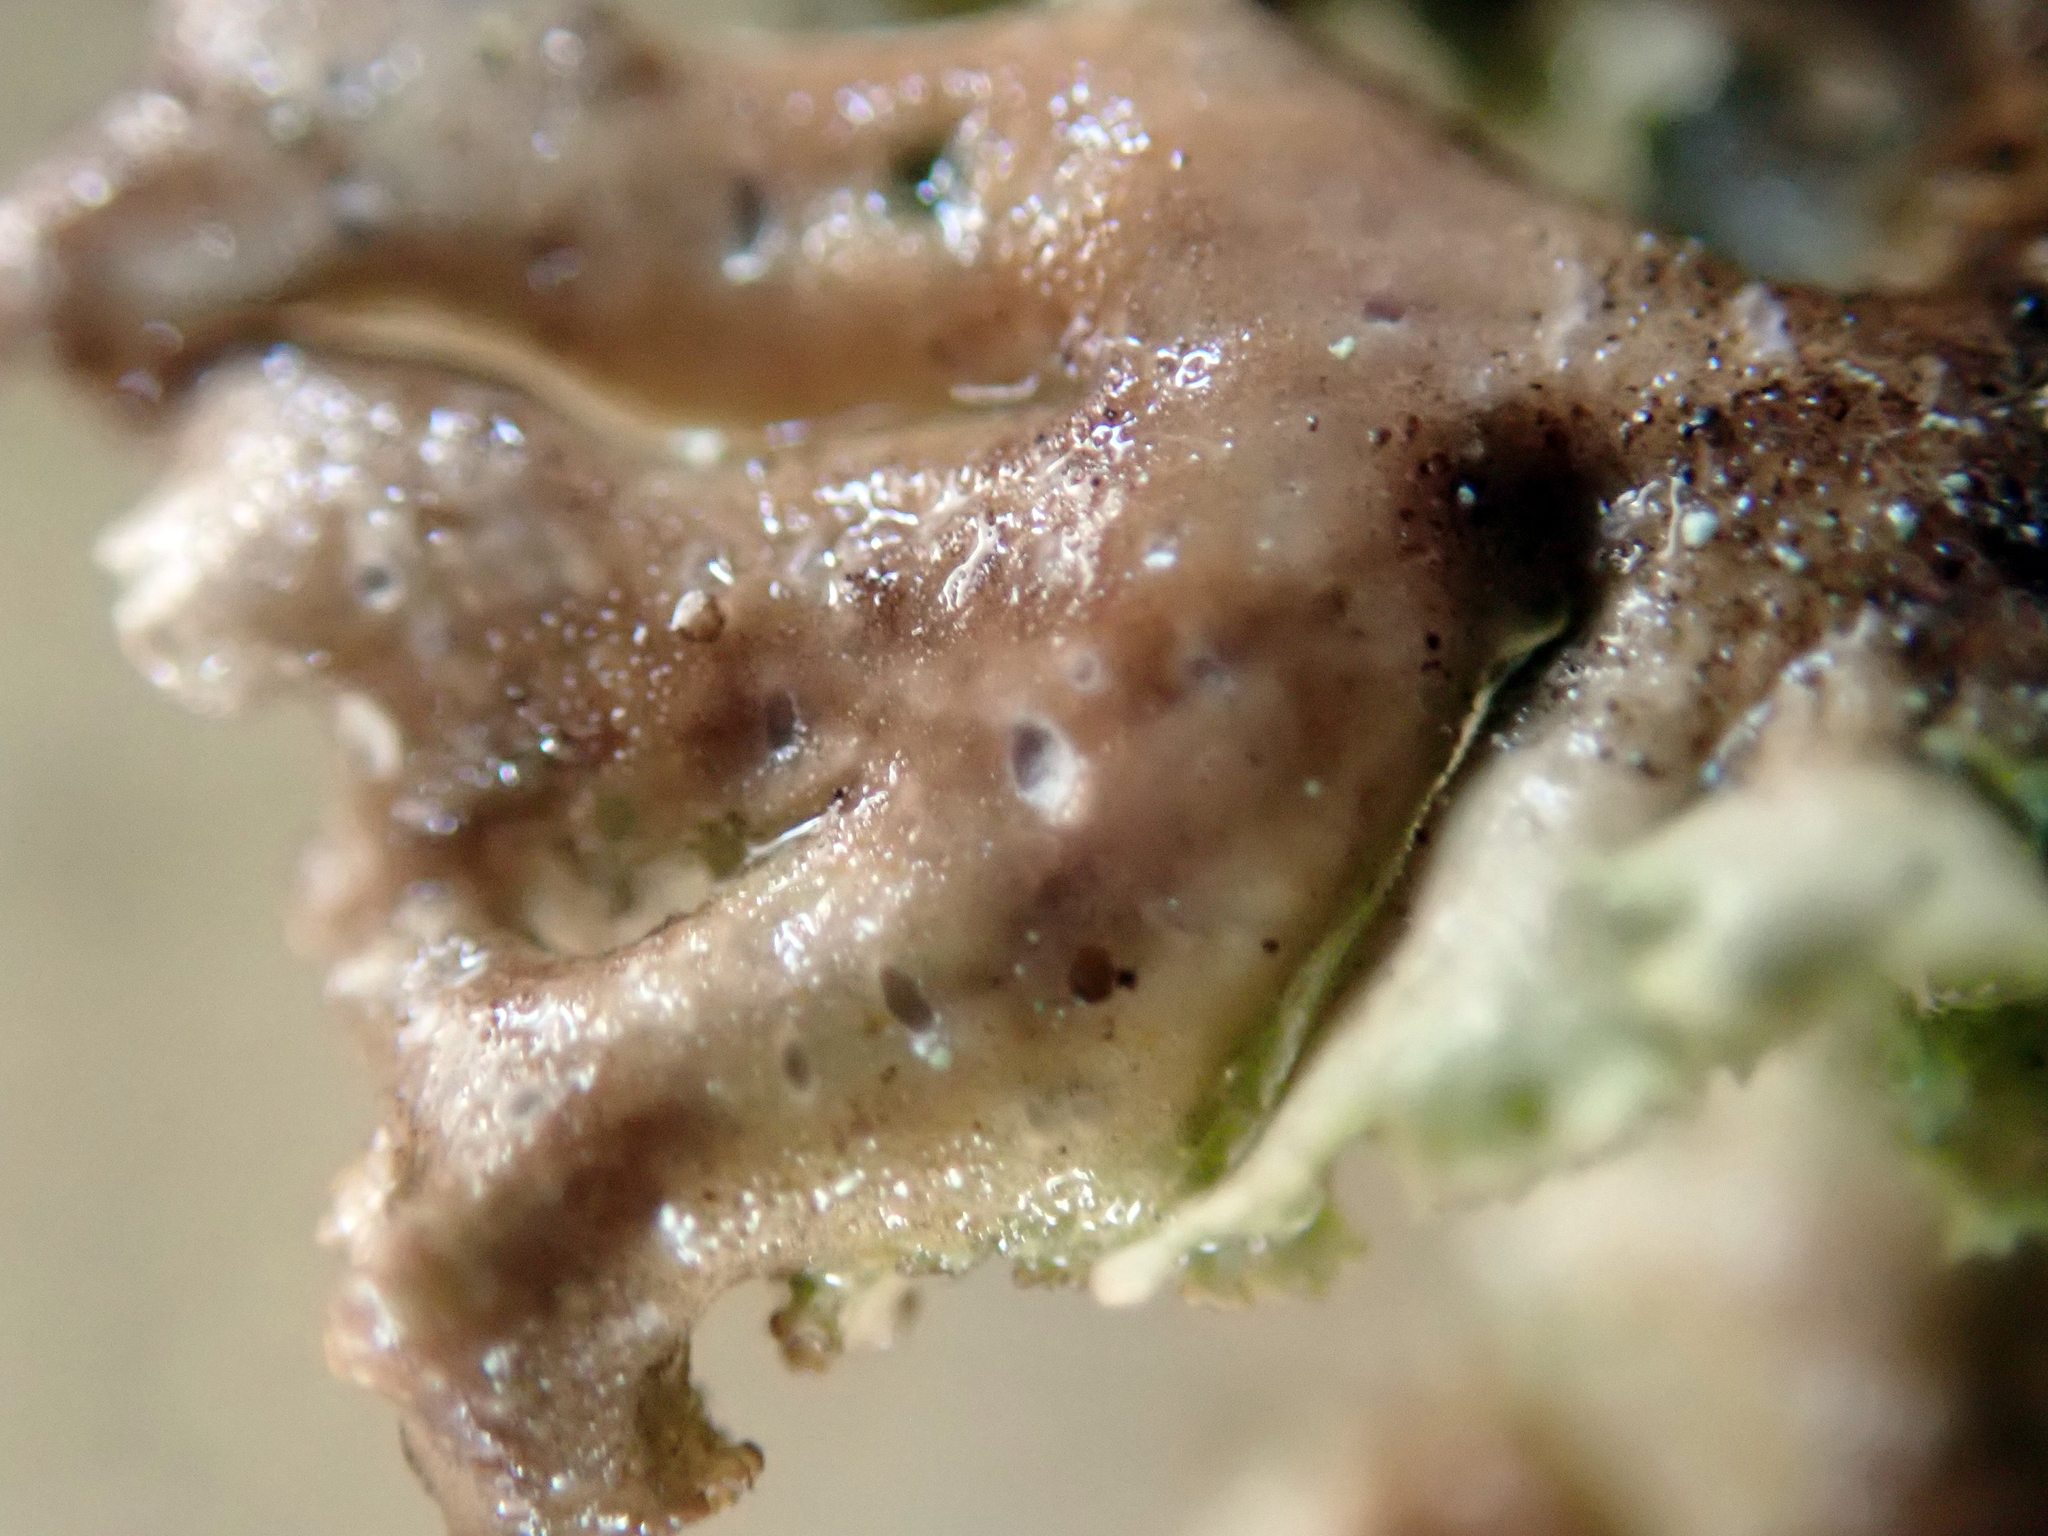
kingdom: Fungi
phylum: Ascomycota
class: Lecanoromycetes
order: Peltigerales
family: Lobariaceae
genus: Sticta
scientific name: Sticta squamata
